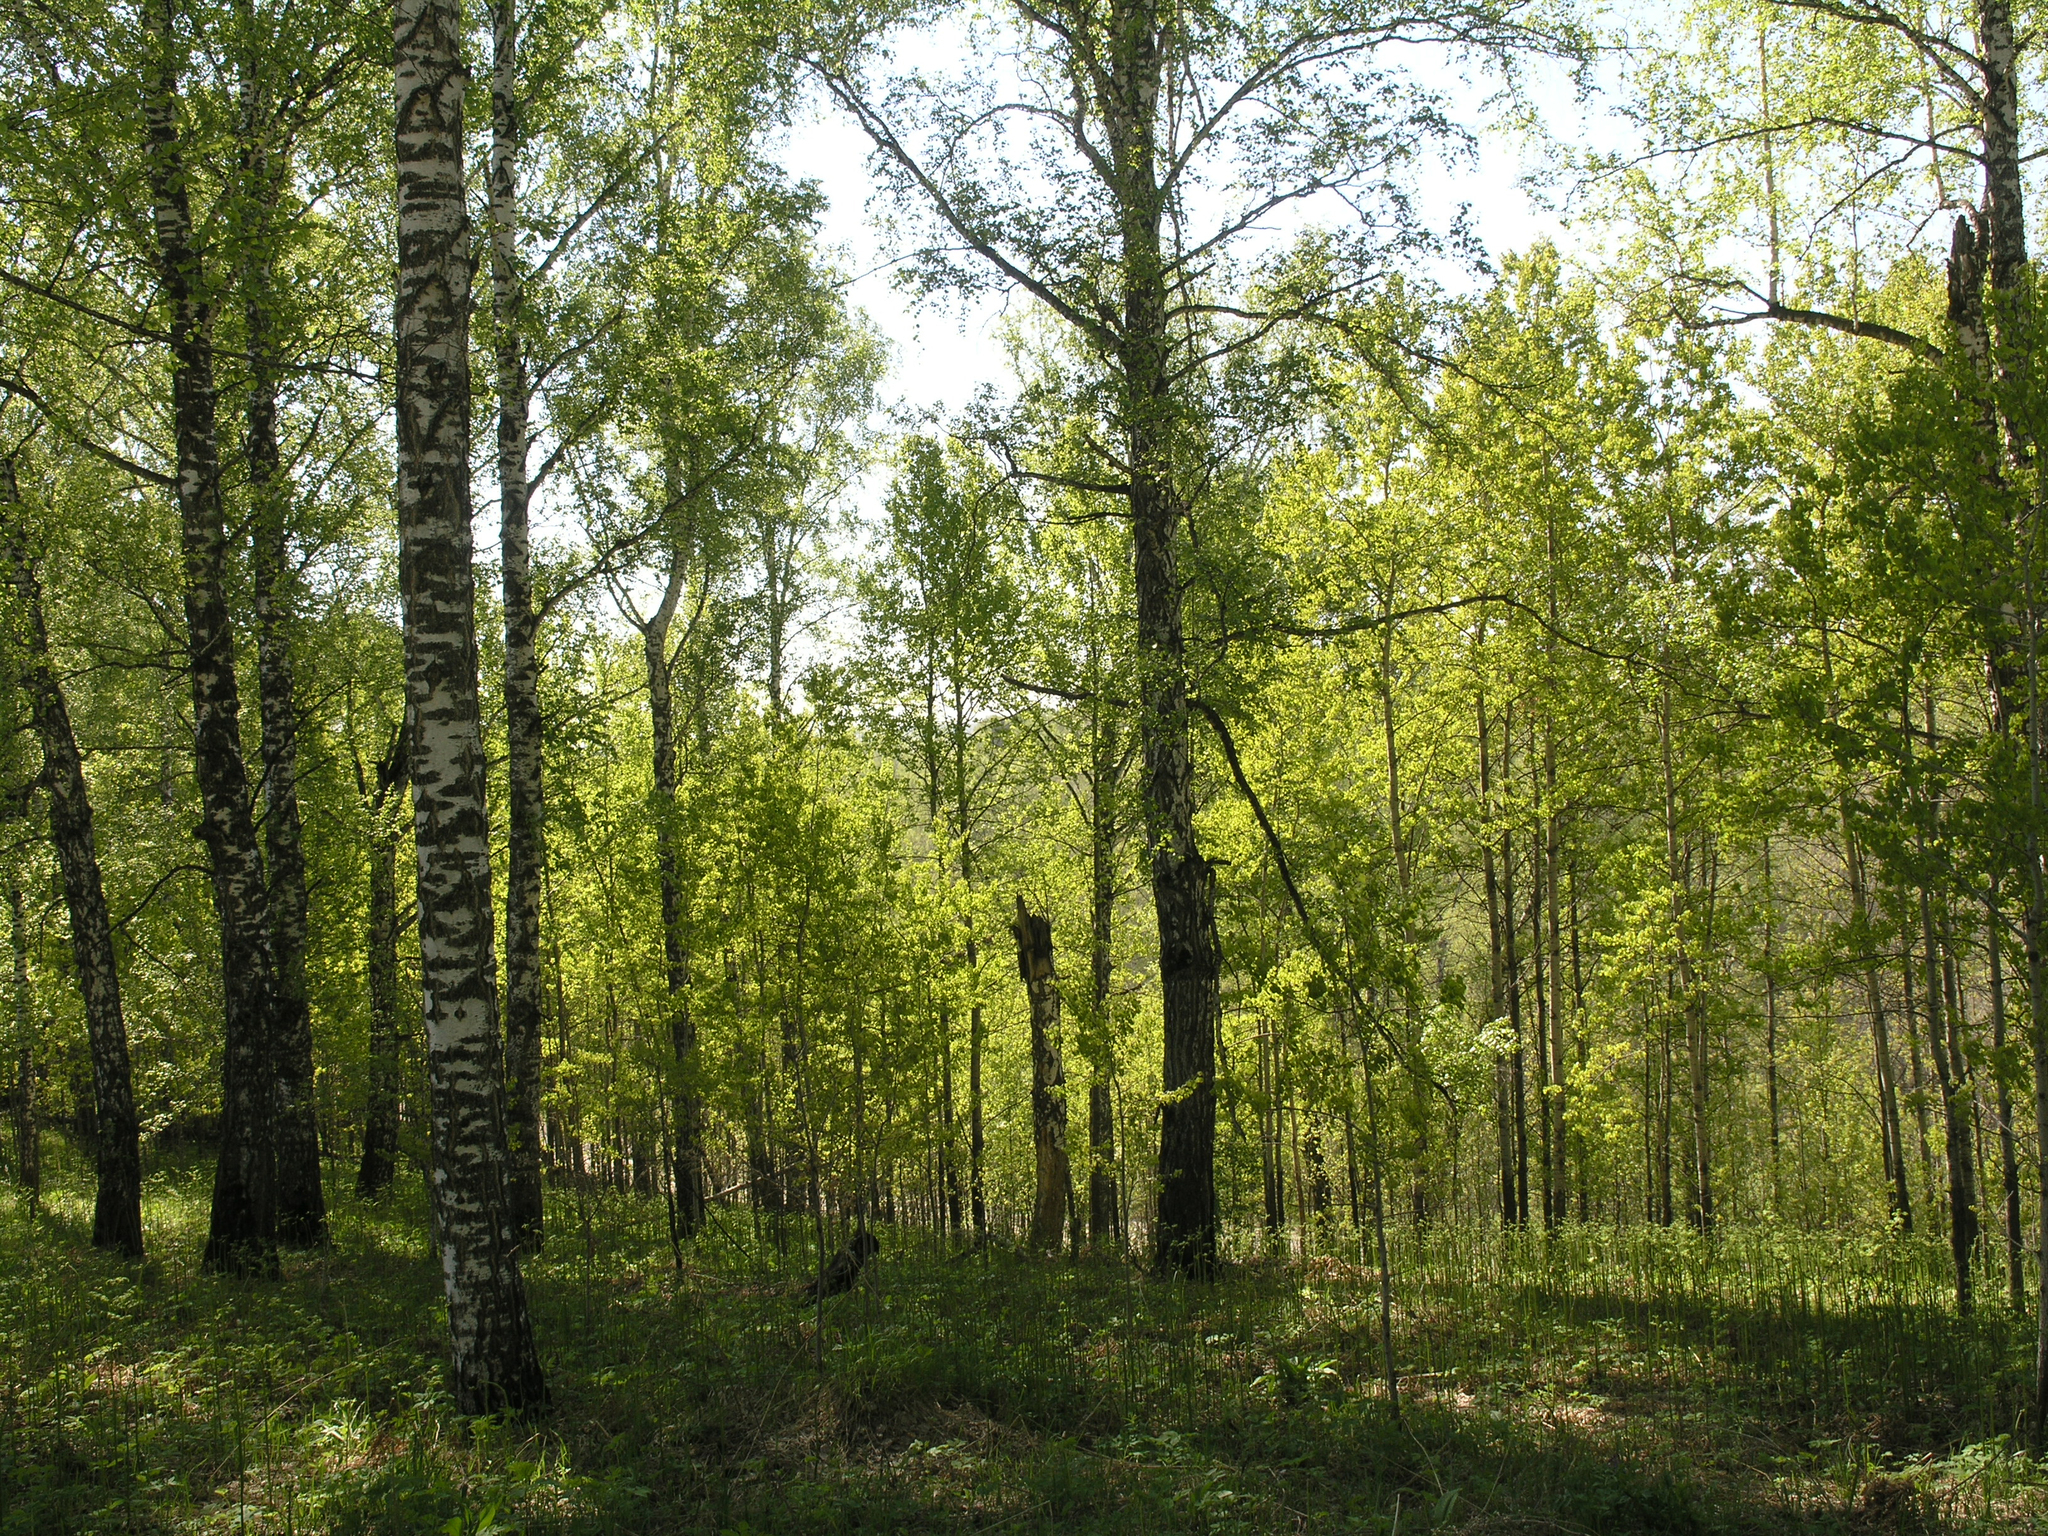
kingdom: Plantae
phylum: Tracheophyta
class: Magnoliopsida
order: Fagales
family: Betulaceae
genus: Betula
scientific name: Betula pendula
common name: Silver birch
